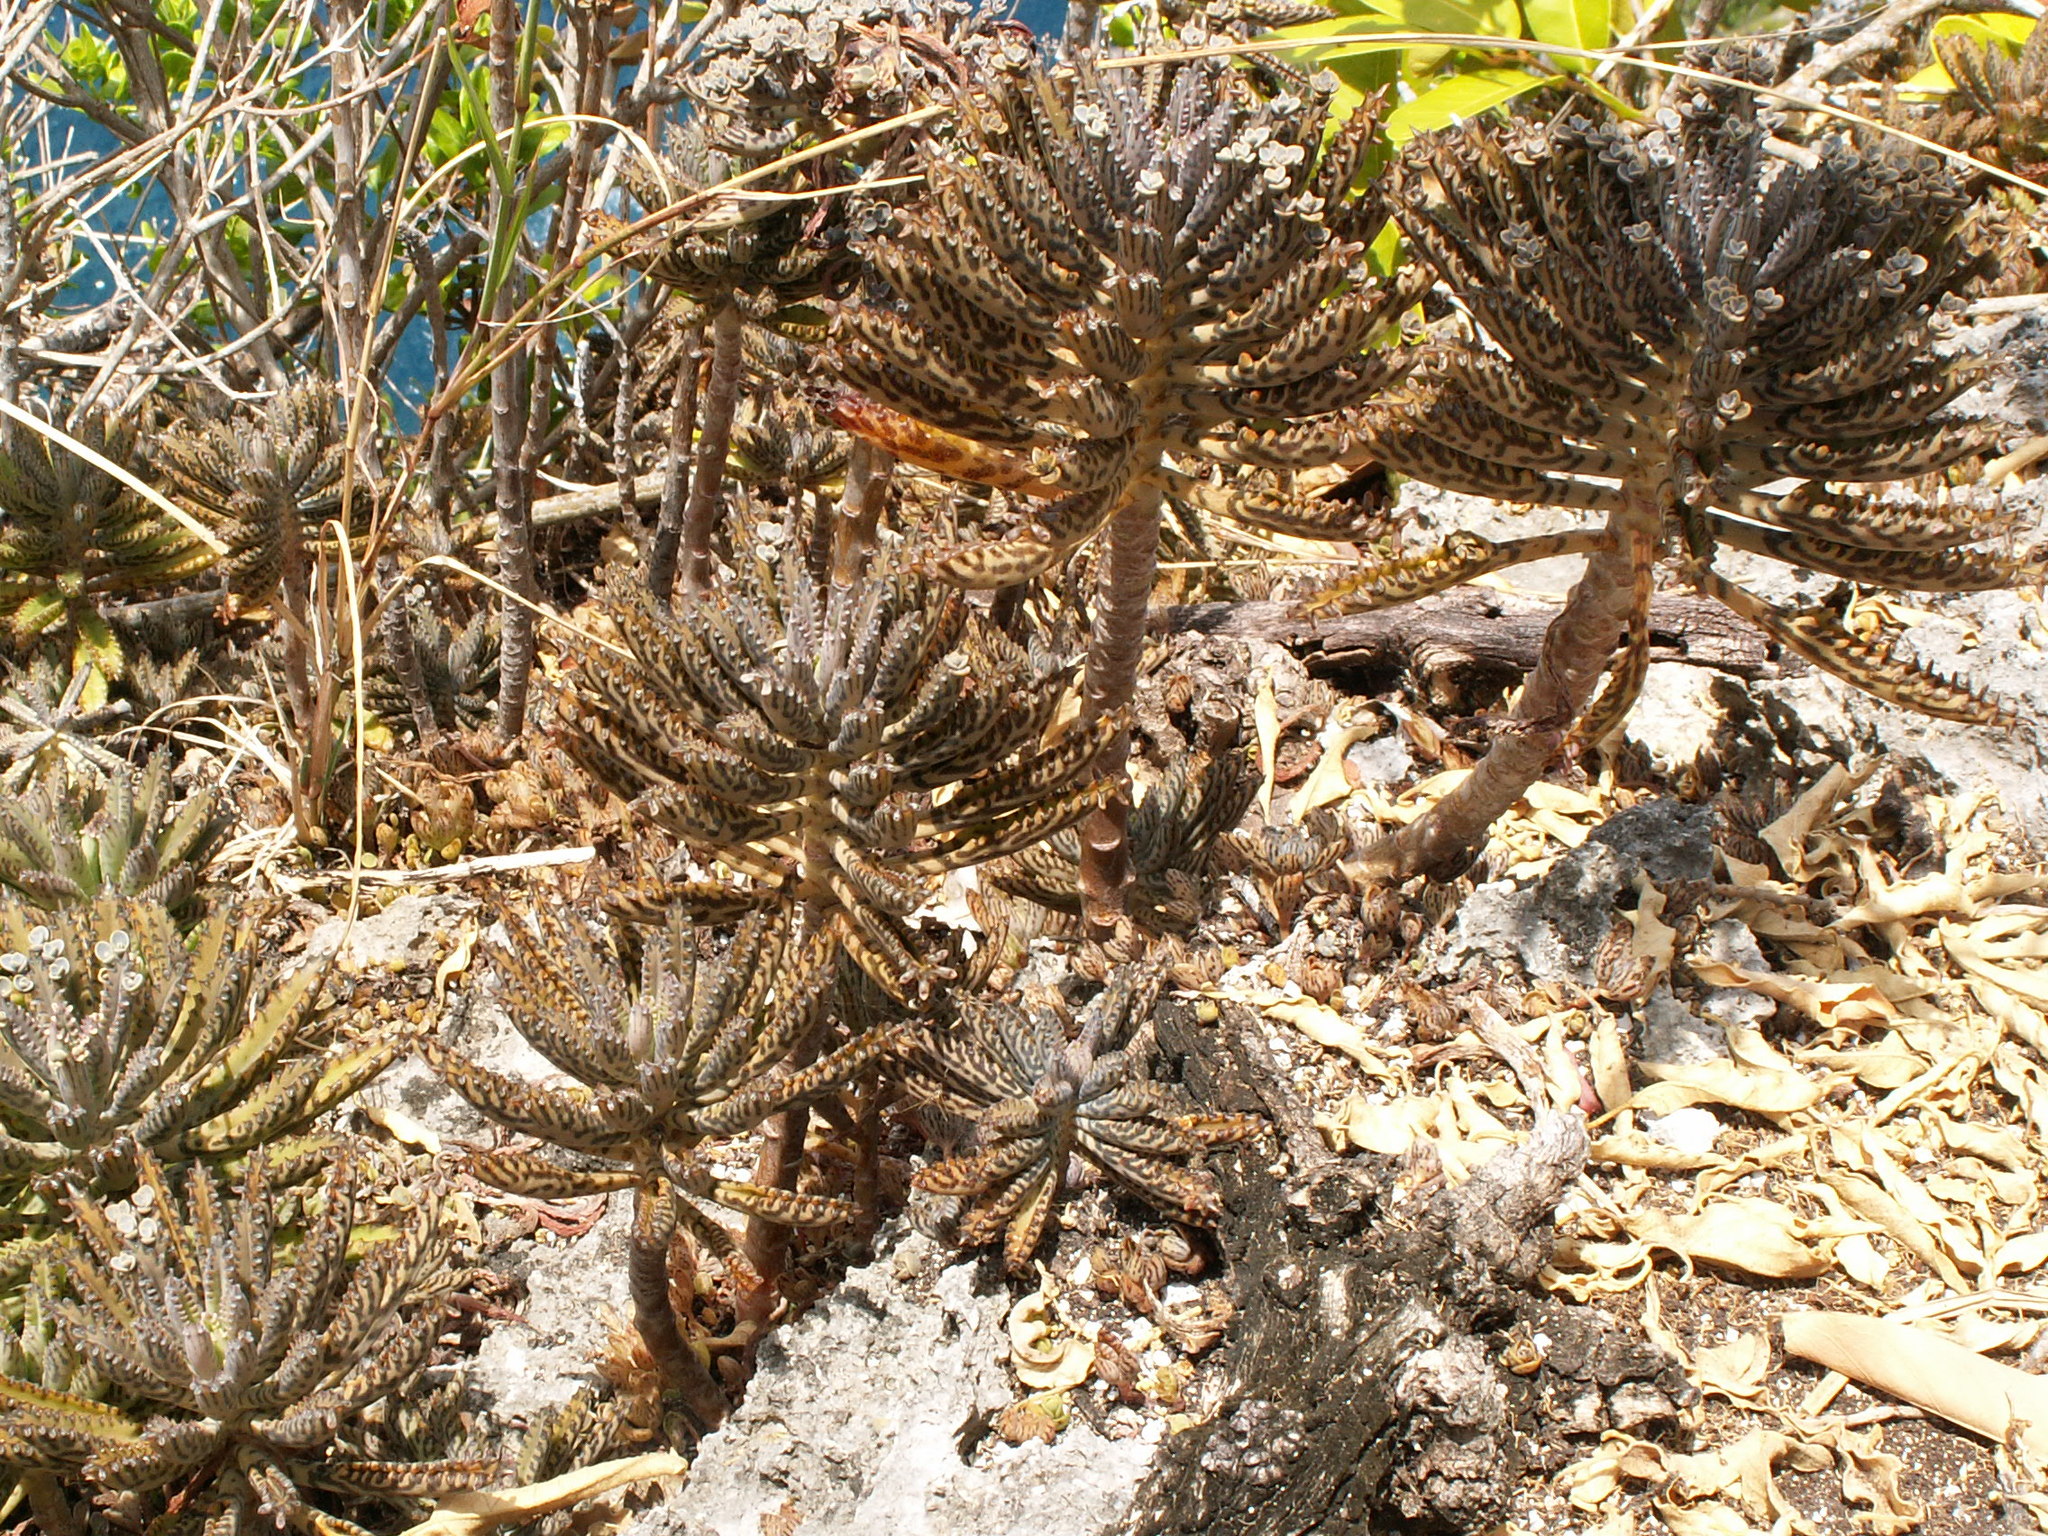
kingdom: Plantae
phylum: Tracheophyta
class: Magnoliopsida
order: Saxifragales
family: Crassulaceae
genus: Kalanchoe
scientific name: Kalanchoe houghtonii
